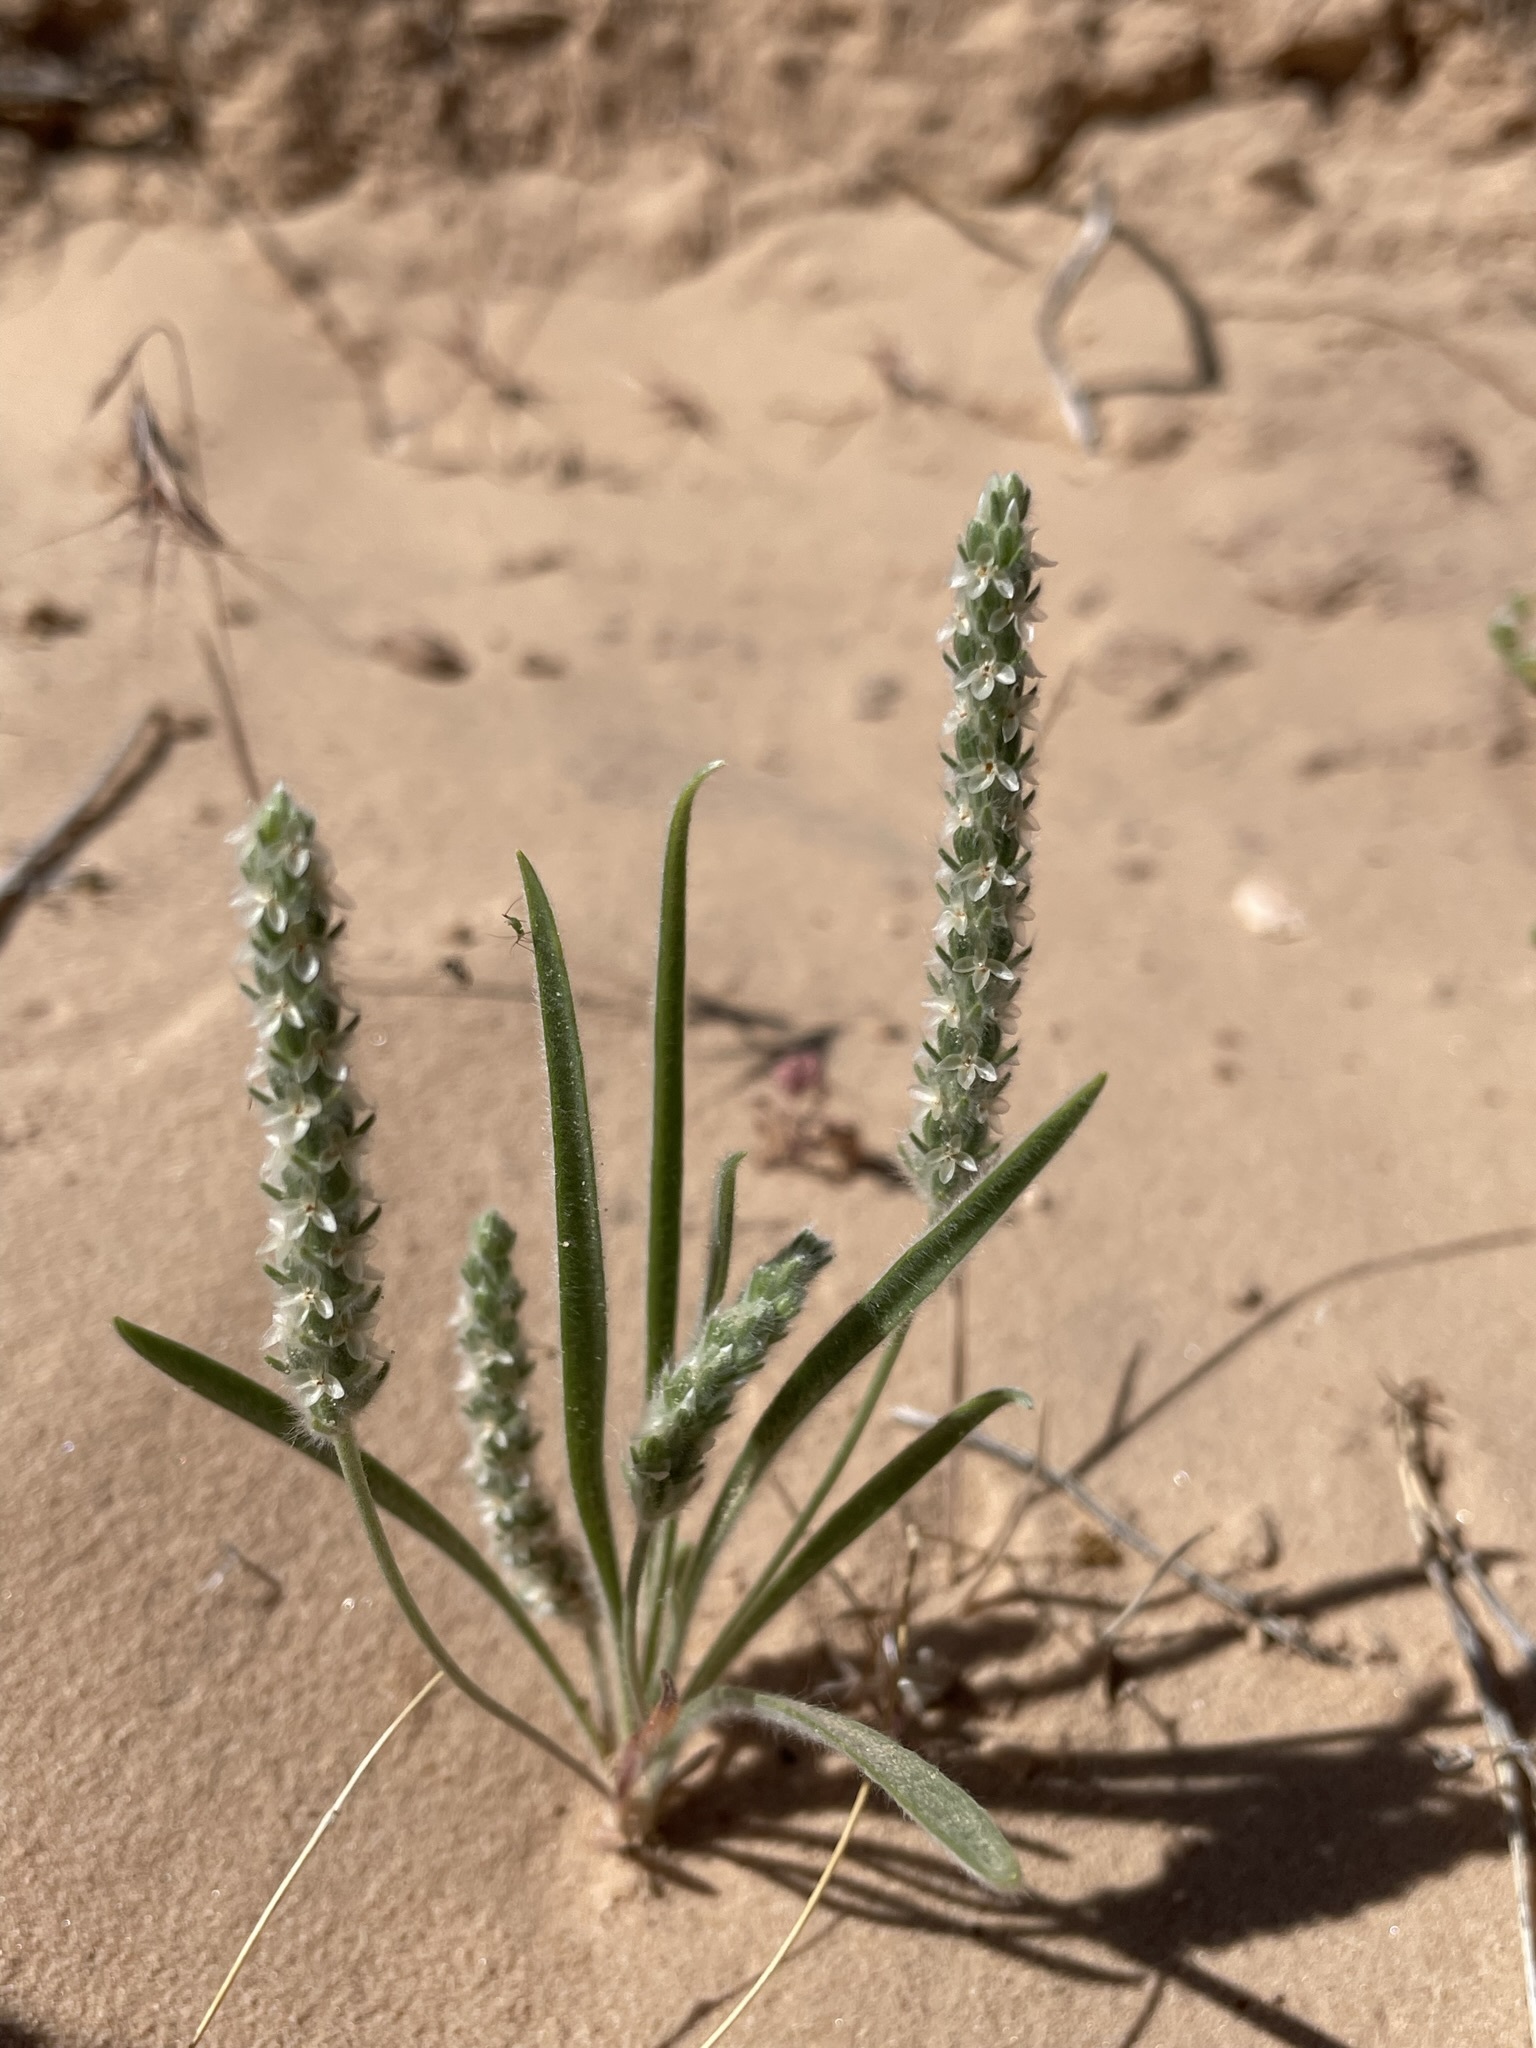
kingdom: Plantae
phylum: Tracheophyta
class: Magnoliopsida
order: Lamiales
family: Plantaginaceae
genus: Plantago
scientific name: Plantago patagonica
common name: Patagonia indian-wheat
